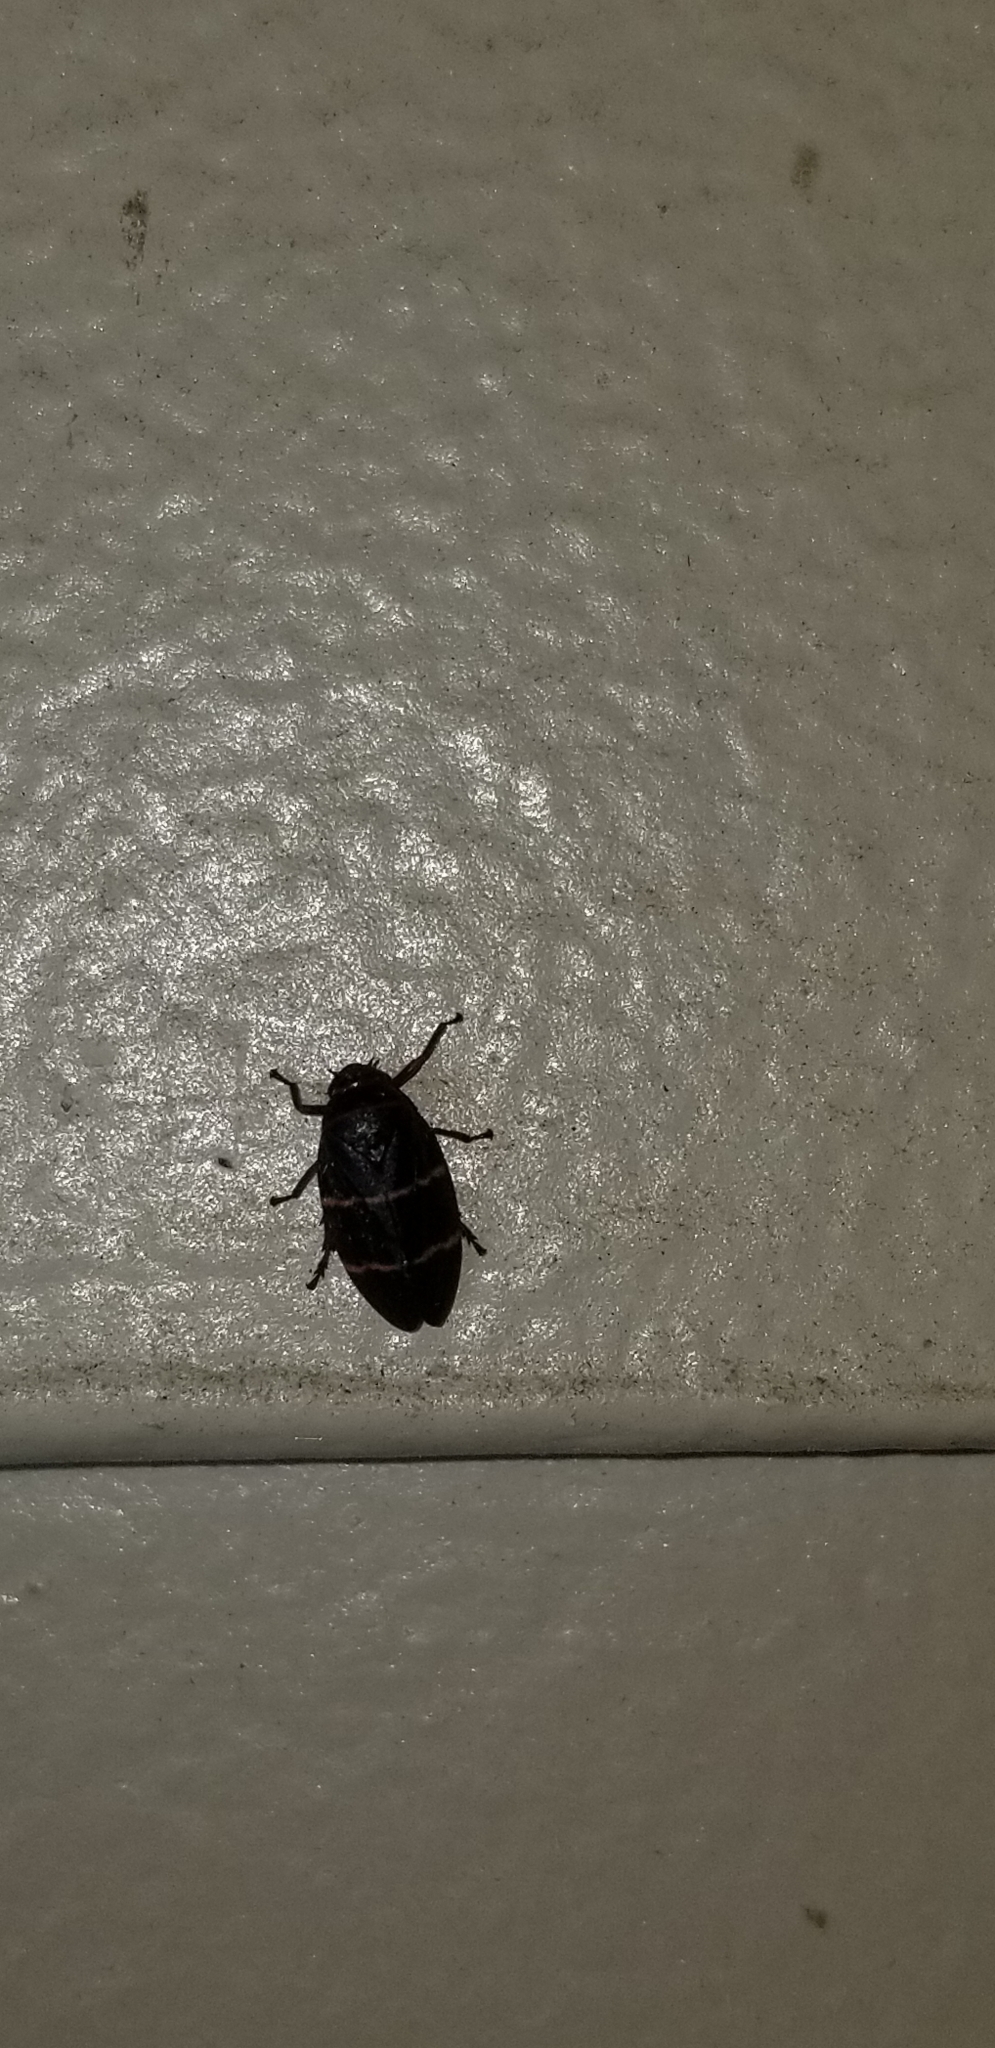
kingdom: Animalia
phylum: Arthropoda
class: Insecta
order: Hemiptera
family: Cercopidae
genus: Prosapia
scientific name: Prosapia bicincta
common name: Twolined spittlebug
